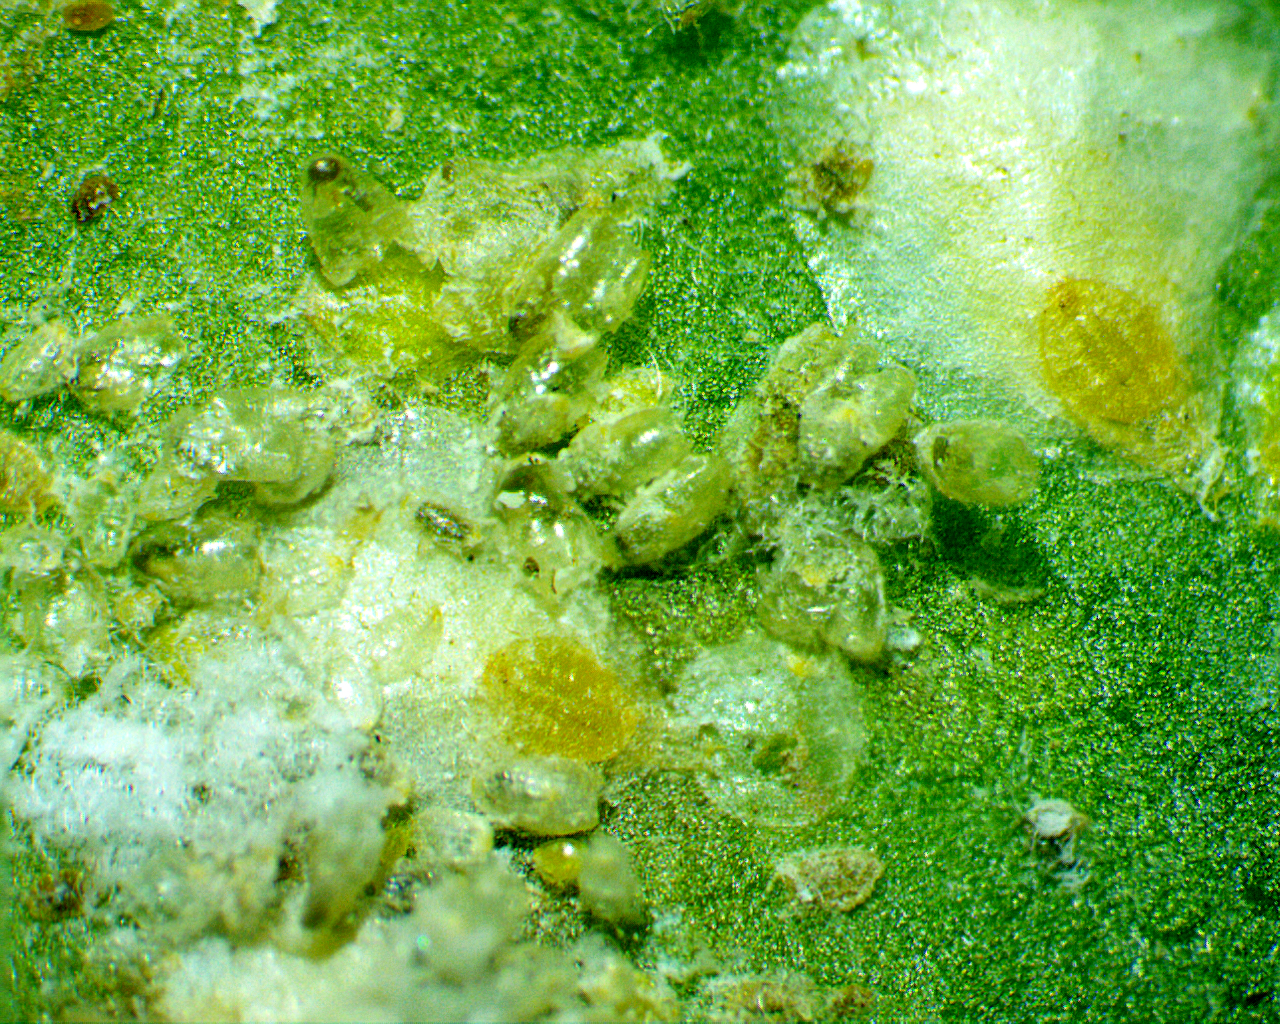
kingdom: Animalia
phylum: Arthropoda
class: Insecta
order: Hemiptera
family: Diaspididae
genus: Pseudaulacaspis
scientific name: Pseudaulacaspis cockerelli
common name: False oleander scale
